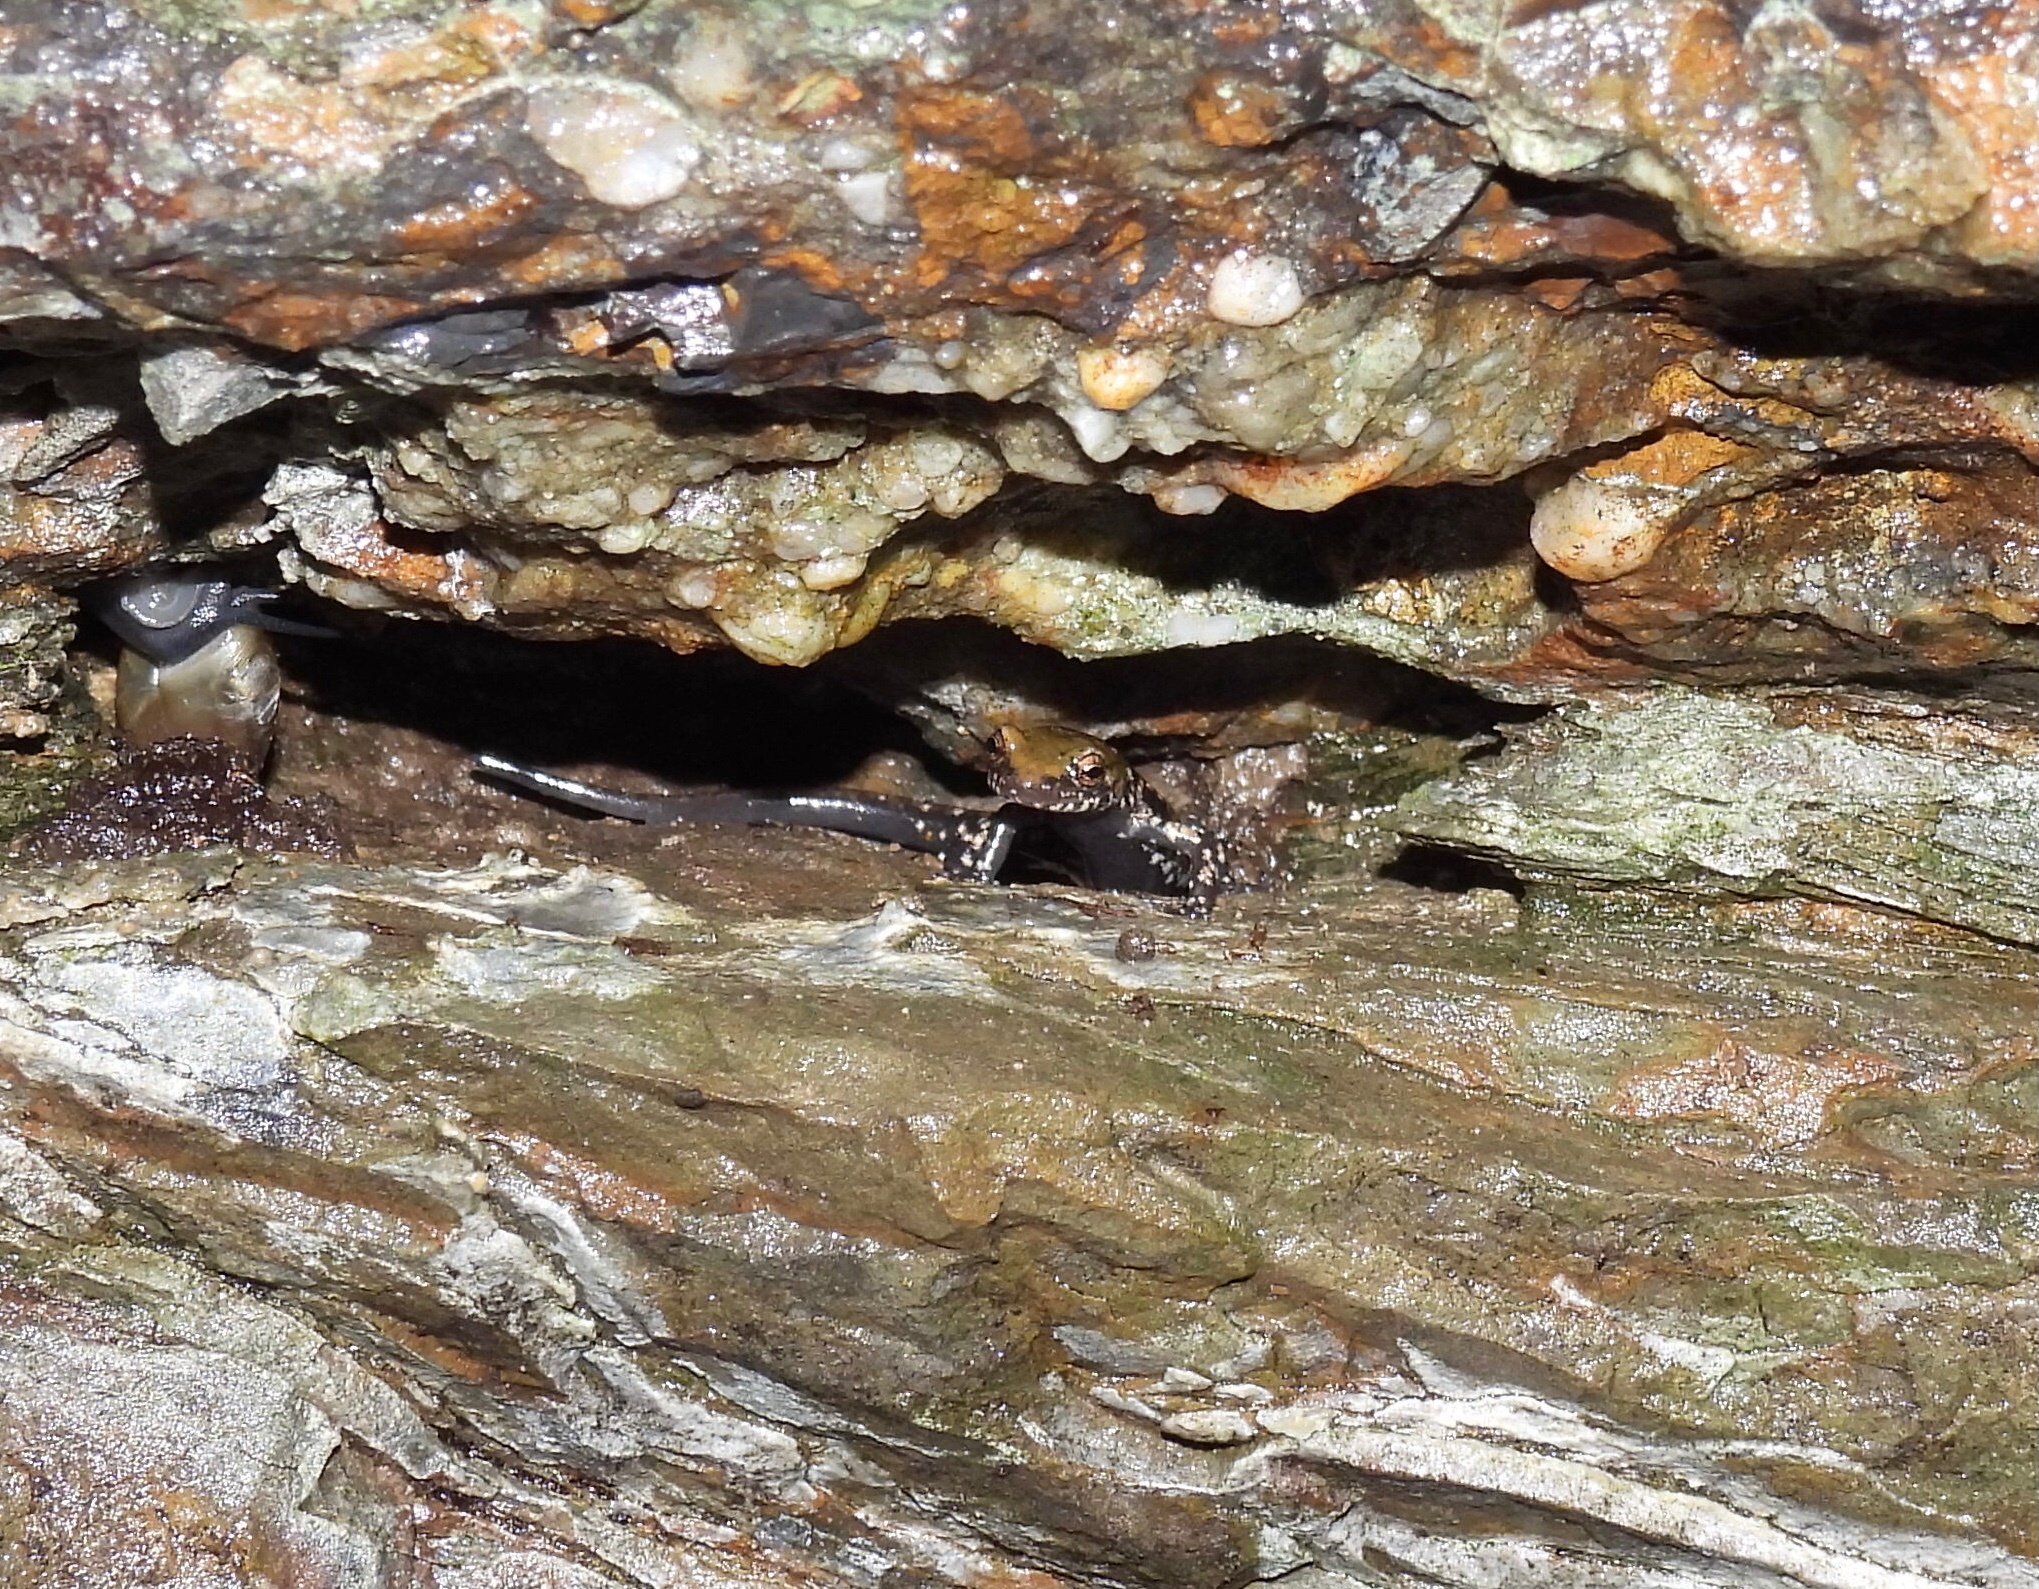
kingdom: Animalia
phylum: Chordata
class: Amphibia
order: Caudata
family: Plethodontidae
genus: Plethodon
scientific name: Plethodon petraeus
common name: Pigeon mountain salamander
